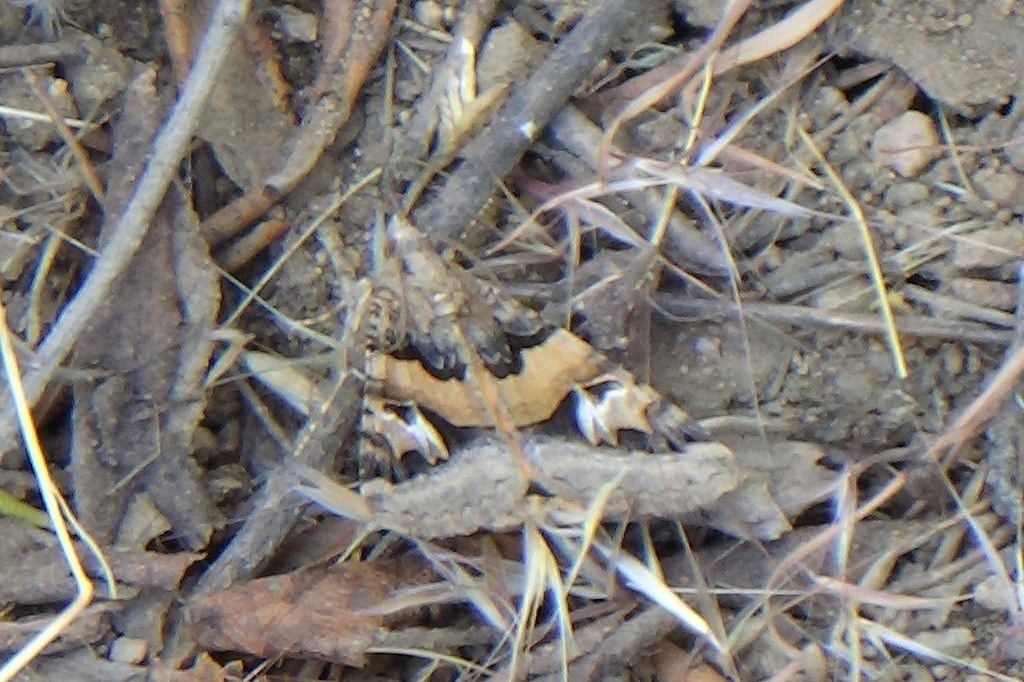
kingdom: Animalia
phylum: Arthropoda
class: Insecta
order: Lepidoptera
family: Erebidae
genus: Drasteria
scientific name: Drasteria divergens
